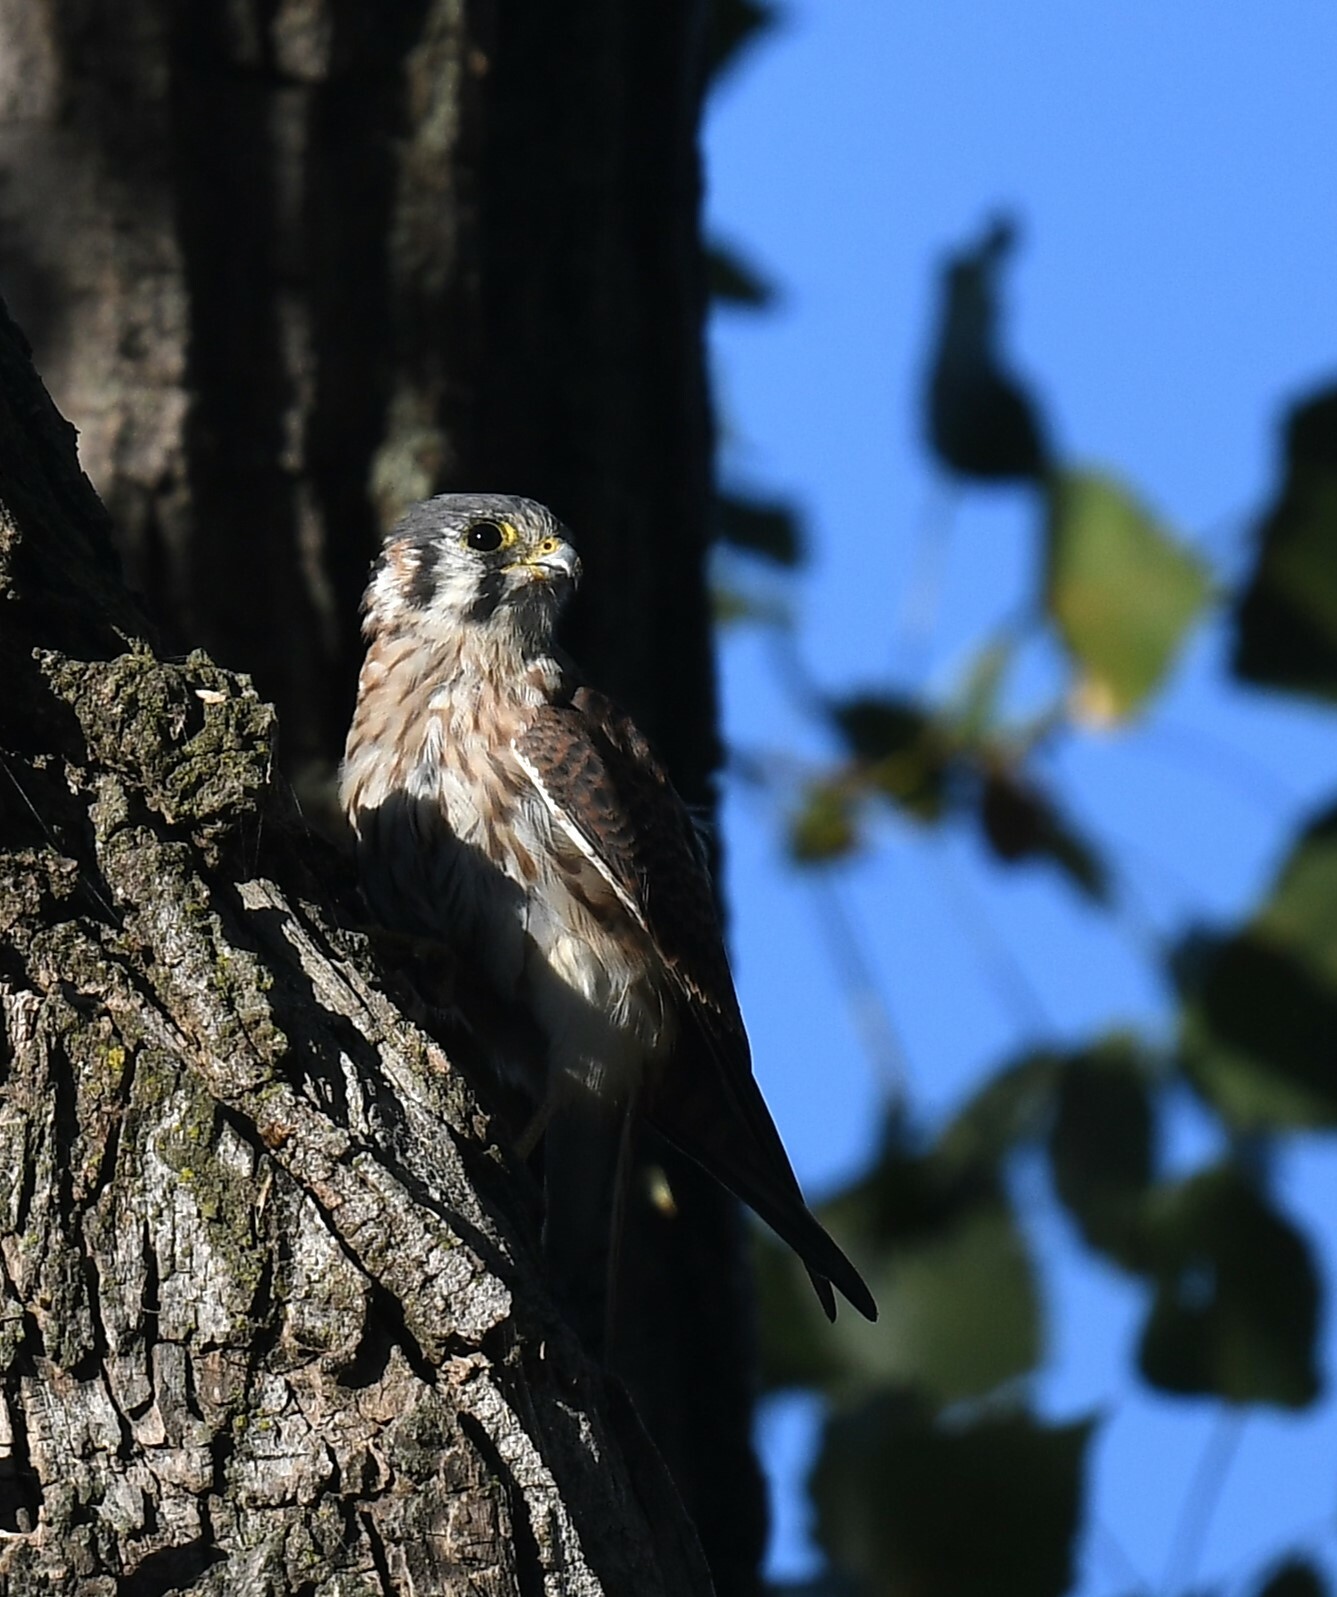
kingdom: Animalia
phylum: Chordata
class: Aves
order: Falconiformes
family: Falconidae
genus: Falco
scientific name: Falco sparverius
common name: American kestrel
